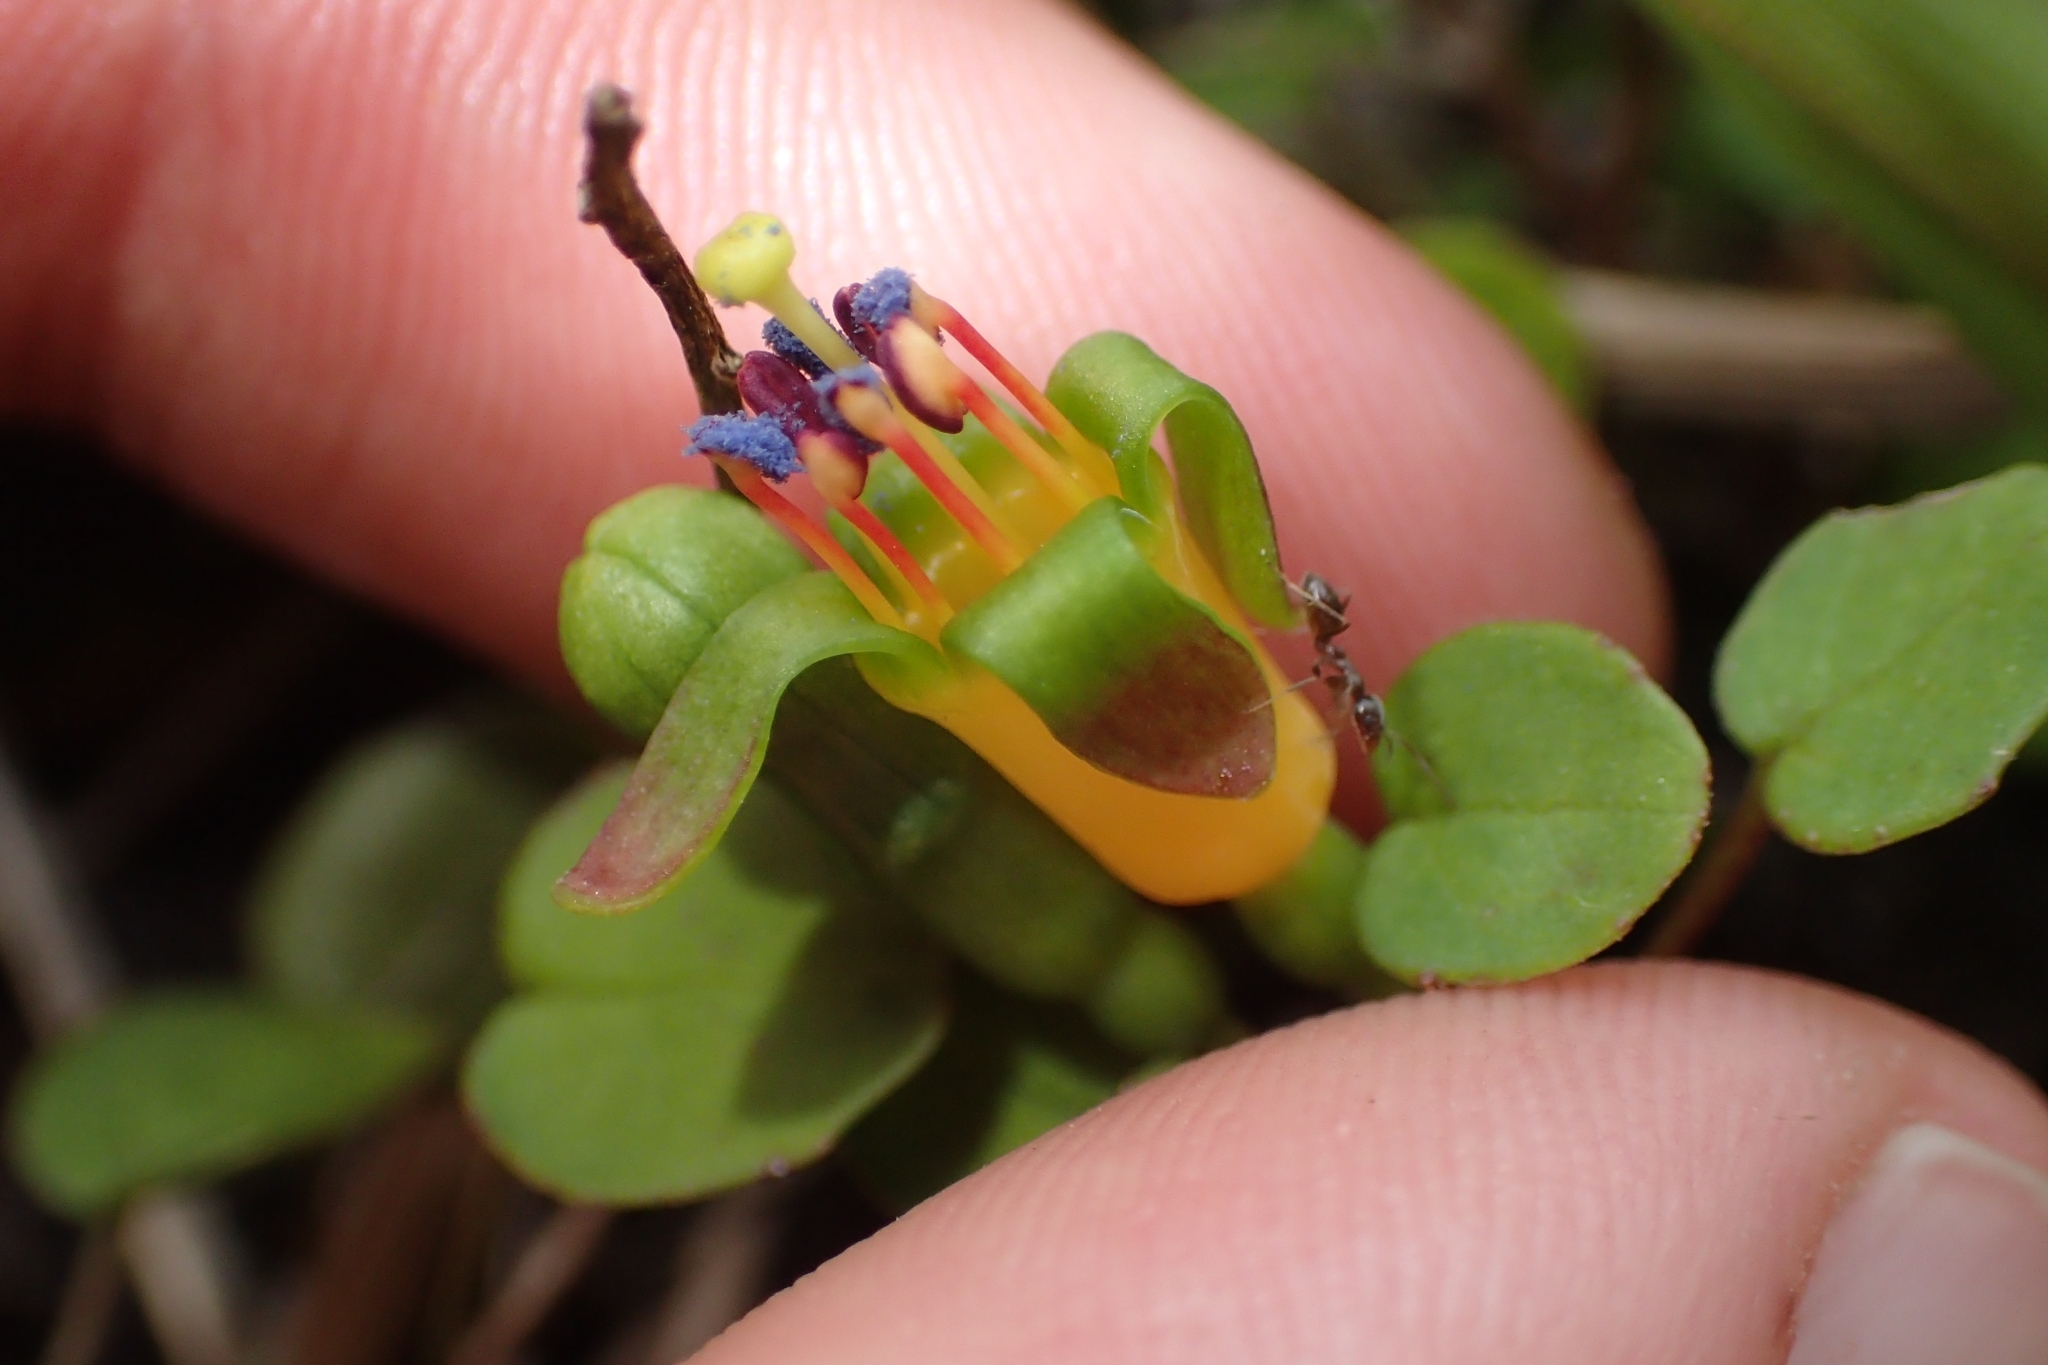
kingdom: Plantae
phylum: Tracheophyta
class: Magnoliopsida
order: Myrtales
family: Onagraceae
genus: Fuchsia
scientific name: Fuchsia procumbens
